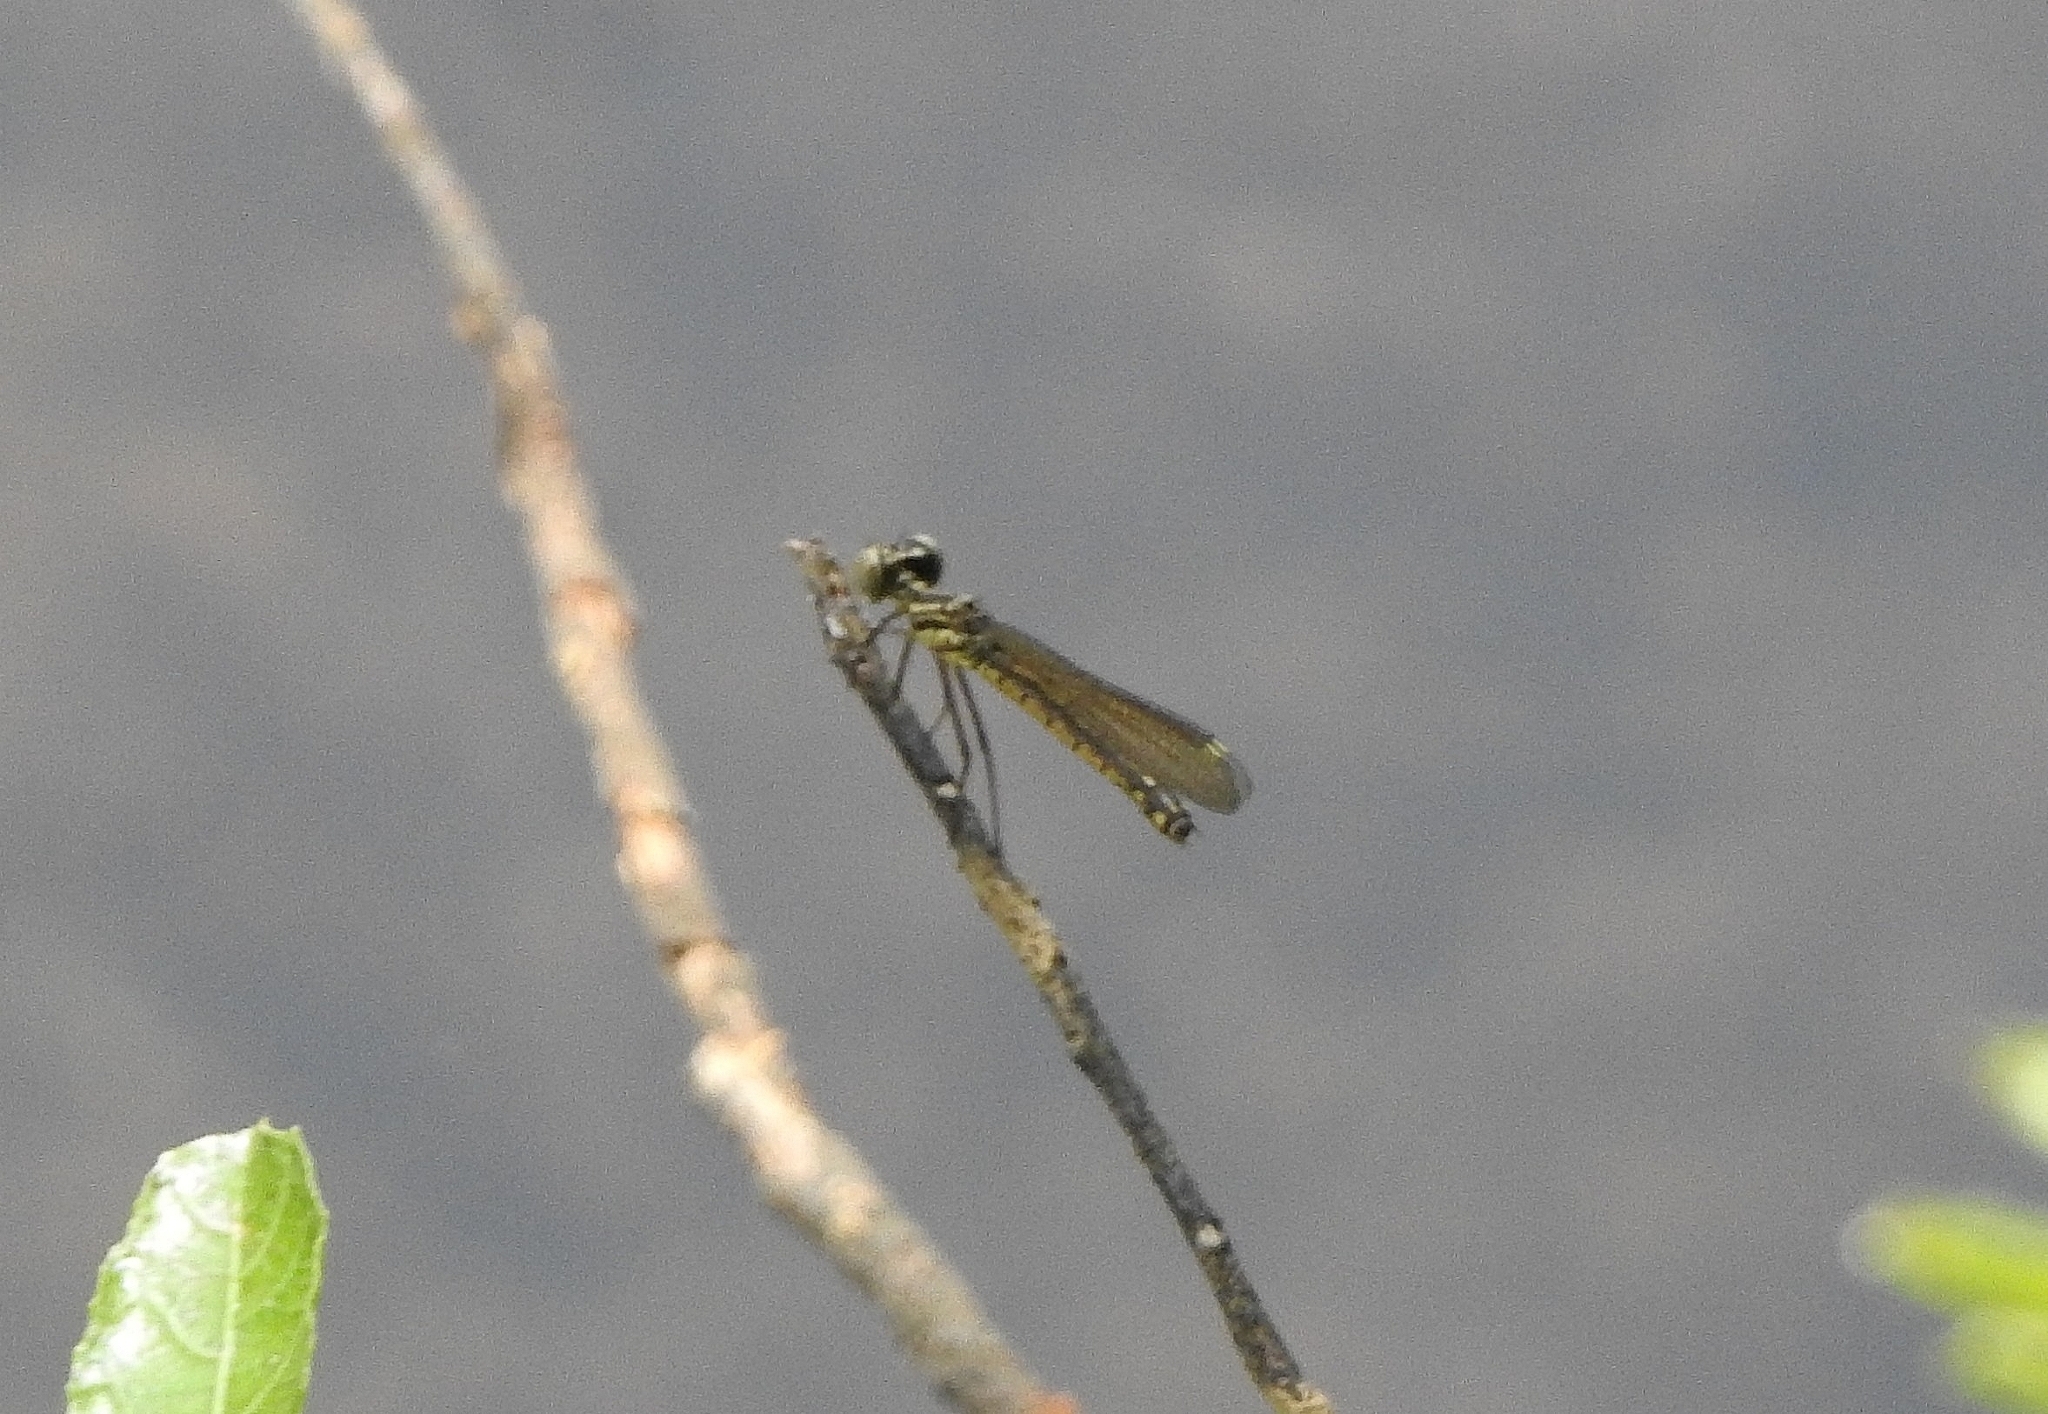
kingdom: Animalia
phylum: Arthropoda
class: Insecta
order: Odonata
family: Chlorocyphidae
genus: Libellago
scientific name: Libellago indica
